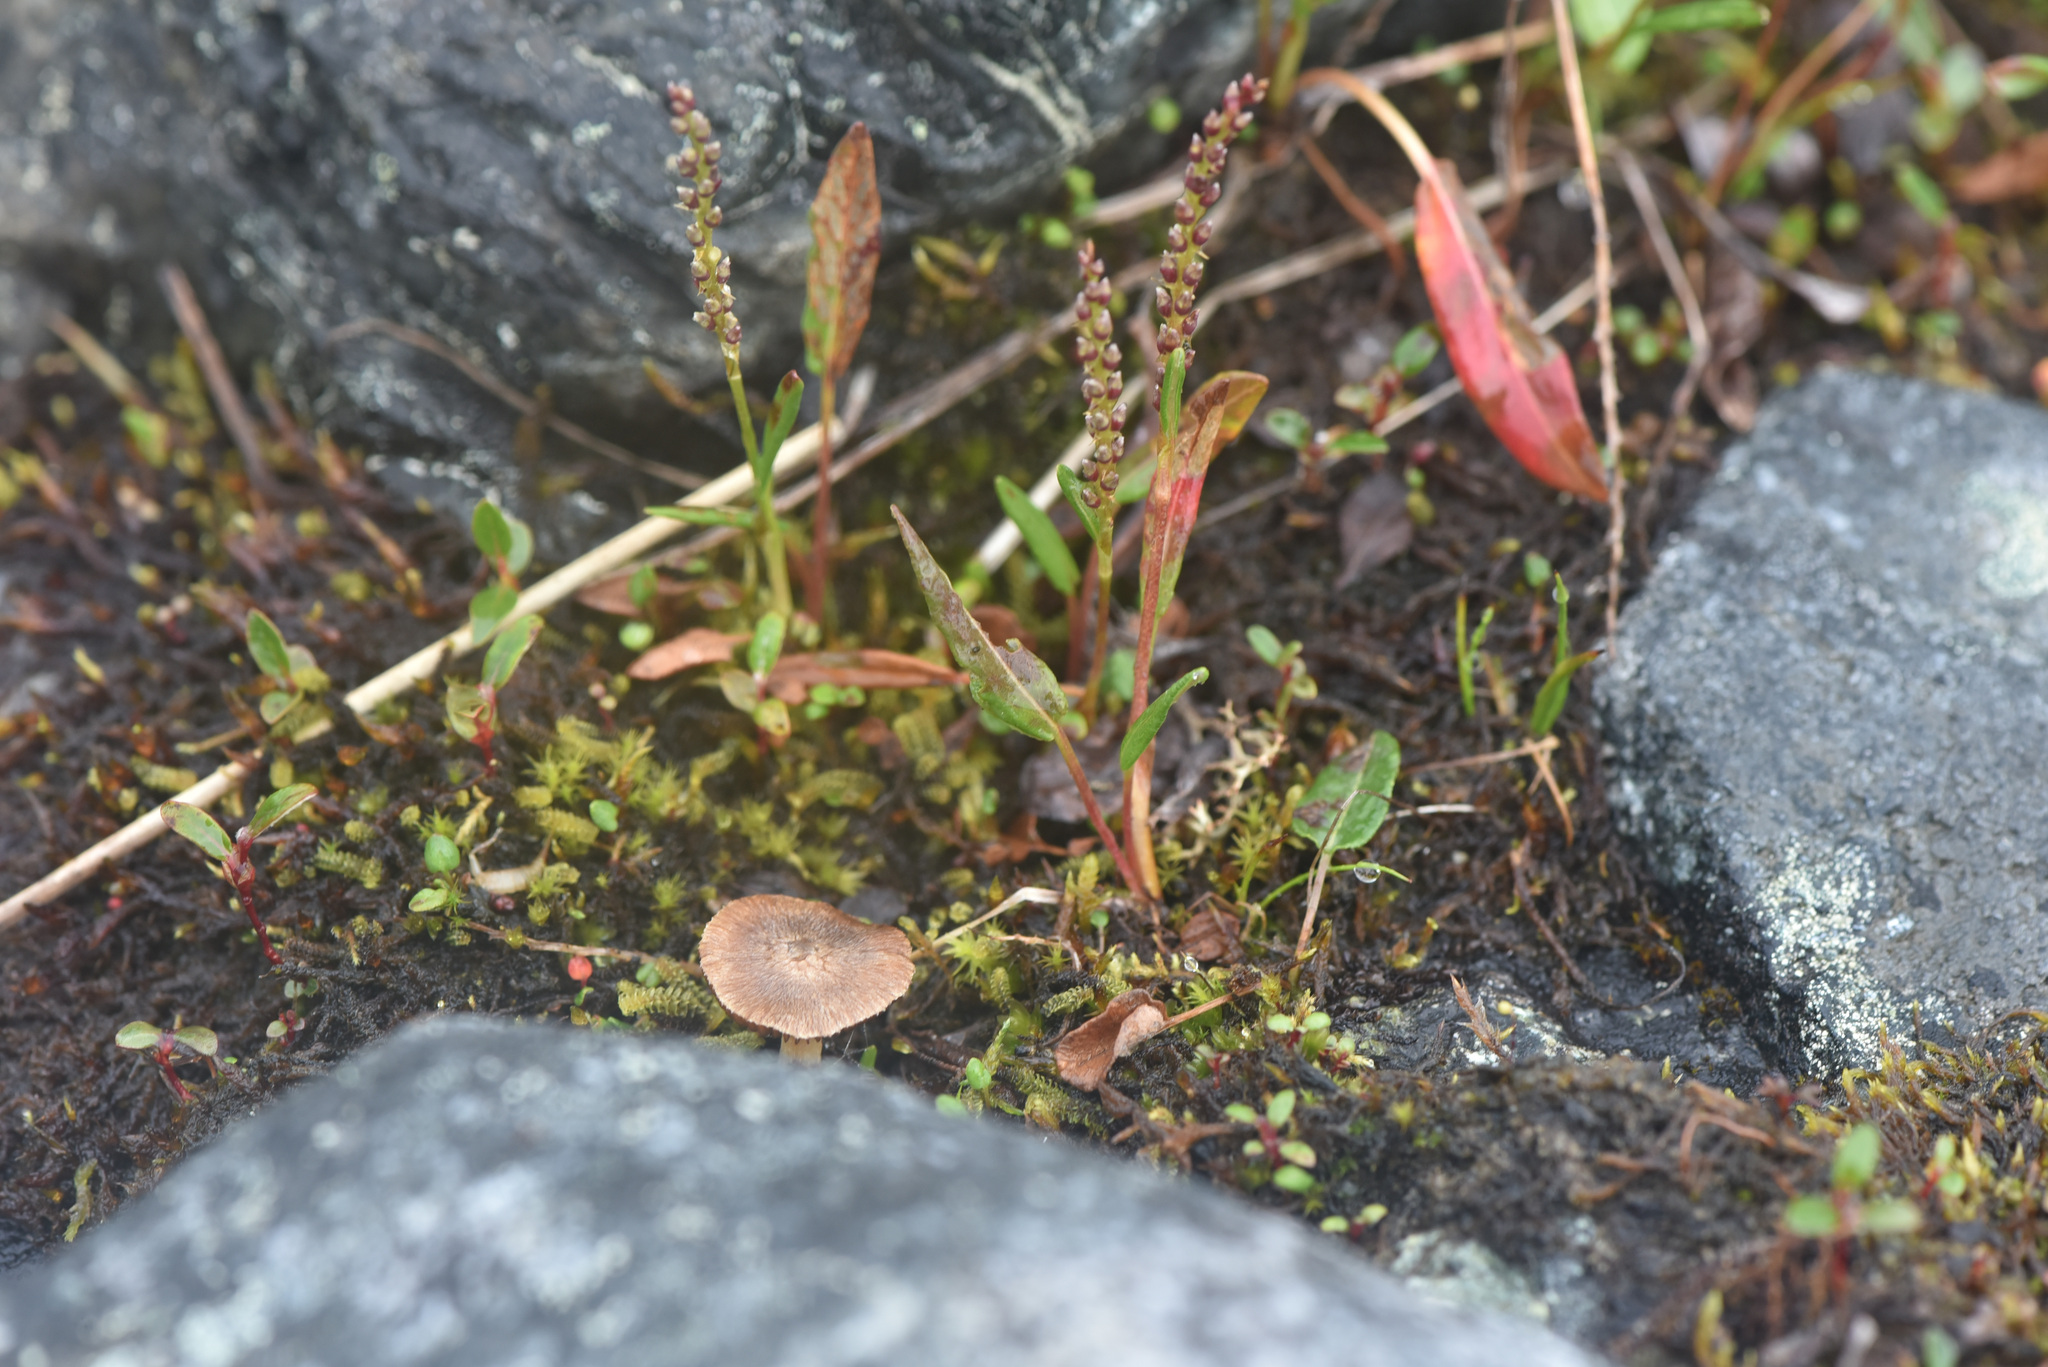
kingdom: Plantae
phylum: Tracheophyta
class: Magnoliopsida
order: Caryophyllales
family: Polygonaceae
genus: Bistorta
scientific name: Bistorta vivipara
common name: Alpine bistort
